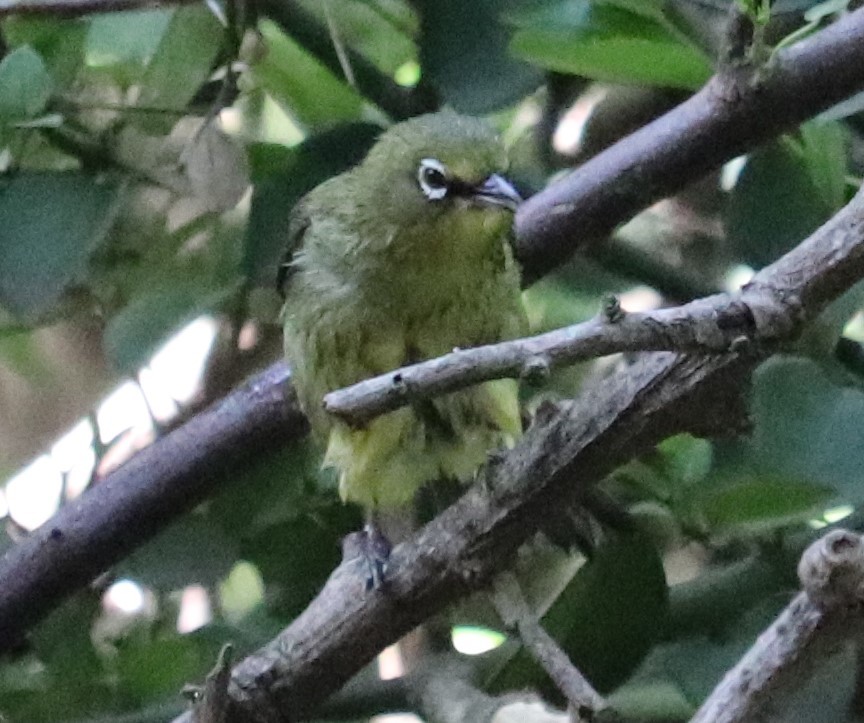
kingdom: Animalia
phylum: Chordata
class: Aves
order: Passeriformes
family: Zosteropidae
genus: Zosterops
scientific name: Zosterops virens
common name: Cape white-eye
